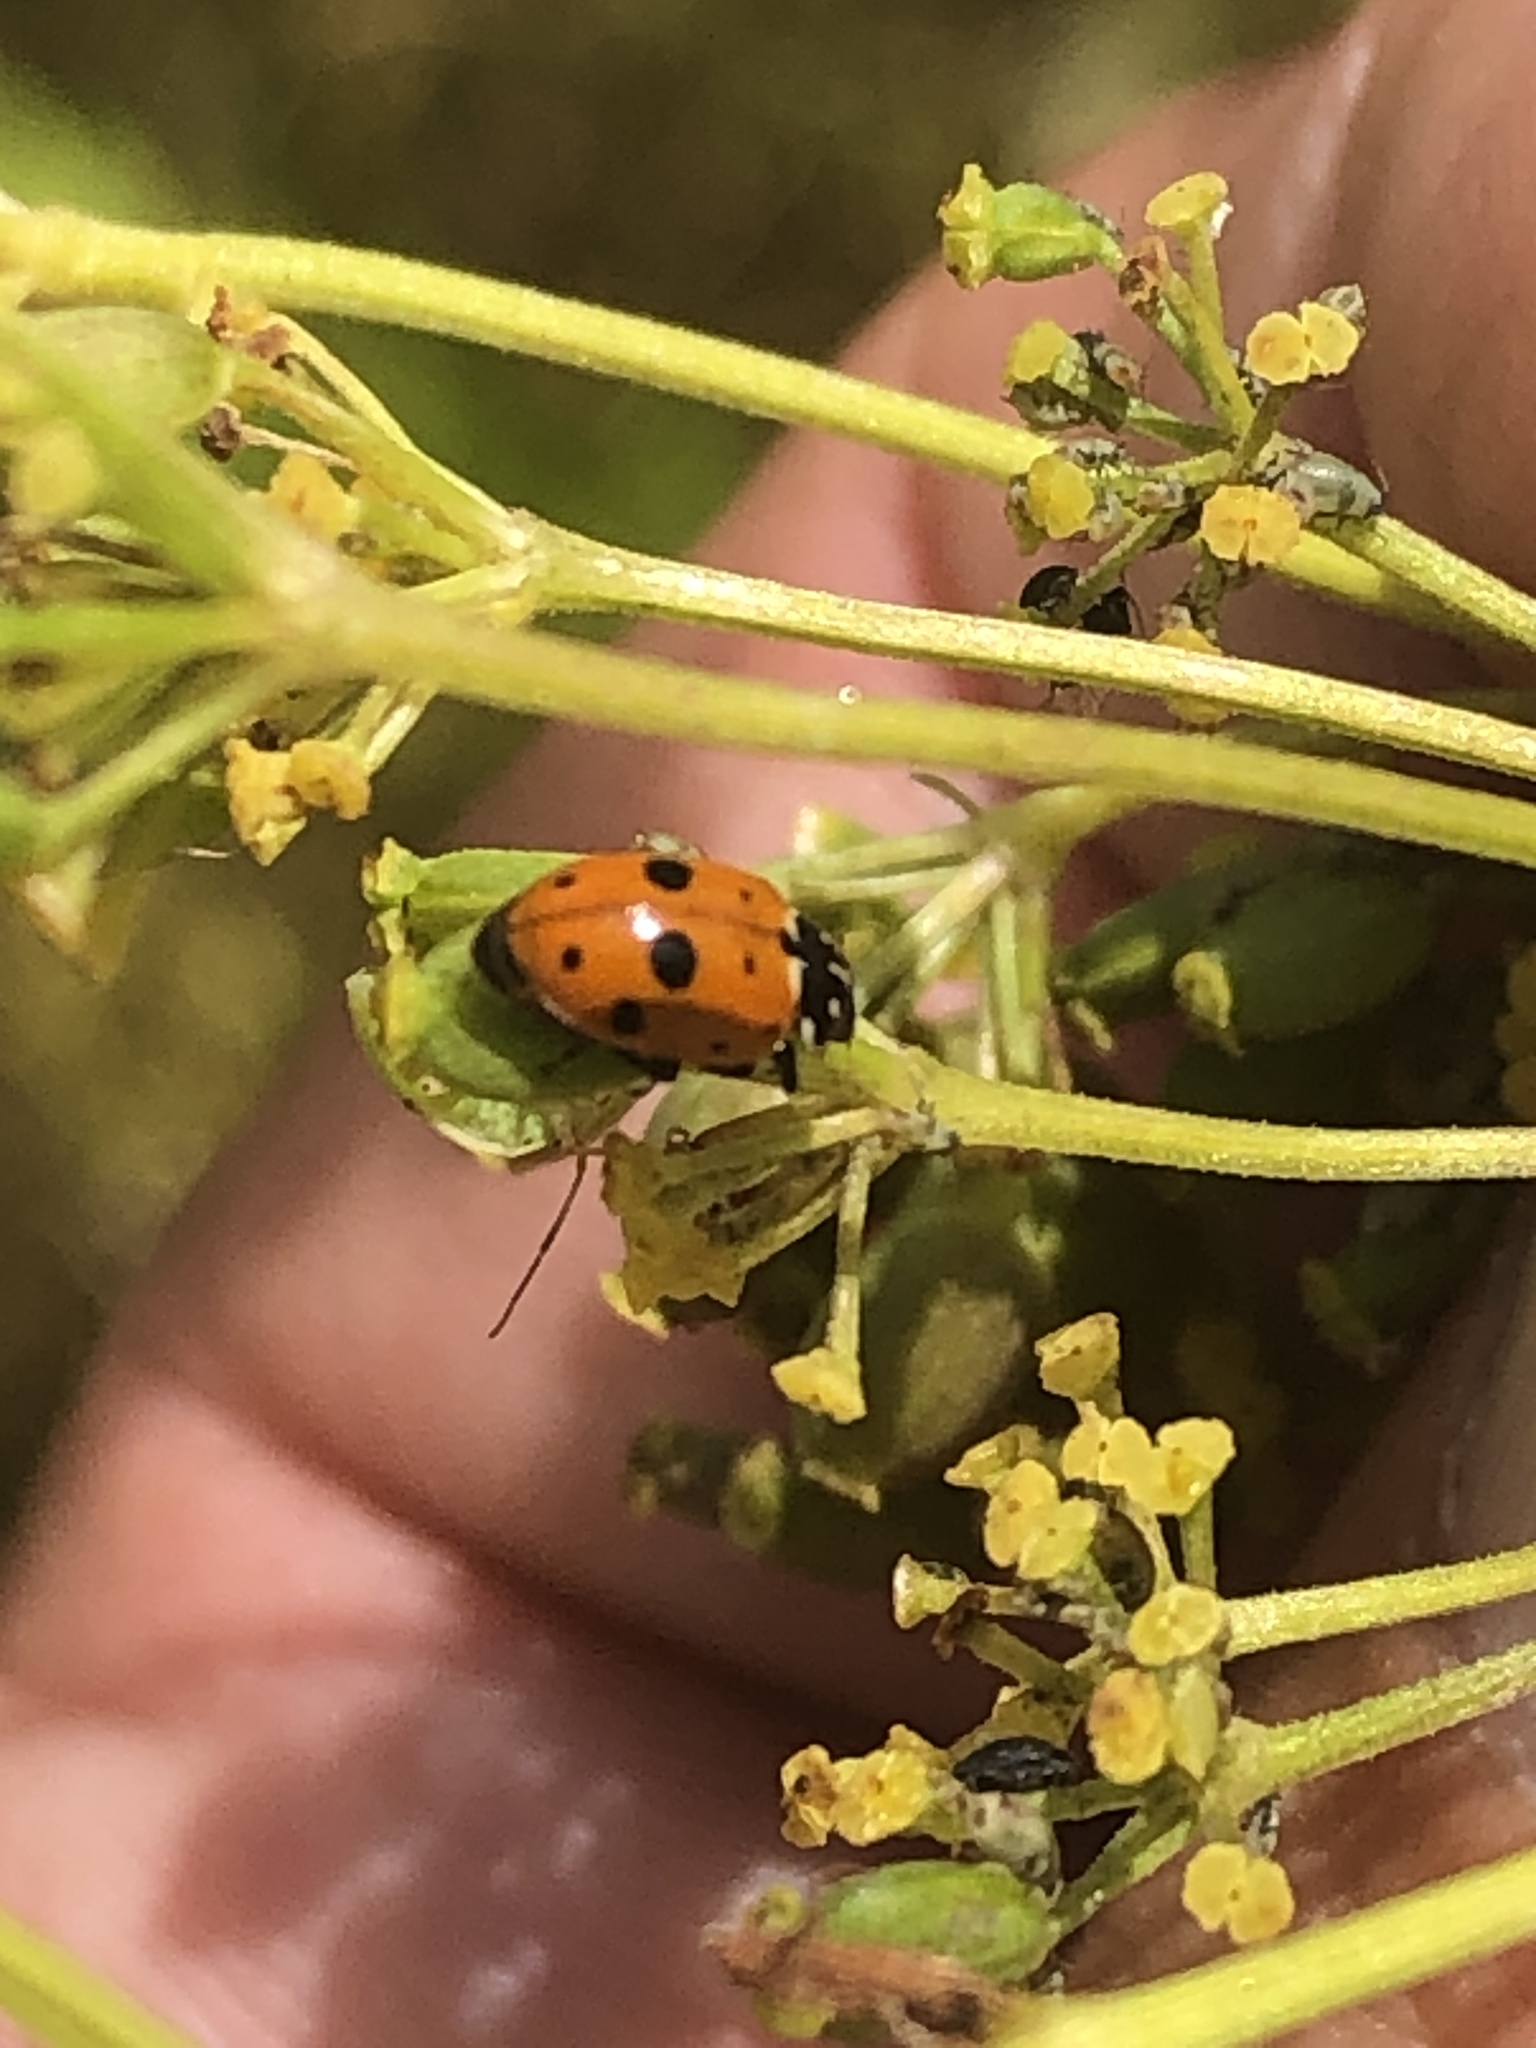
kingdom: Animalia
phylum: Arthropoda
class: Insecta
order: Coleoptera
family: Coccinellidae
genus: Hippodamia
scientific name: Hippodamia variegata
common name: Ladybird beetle
